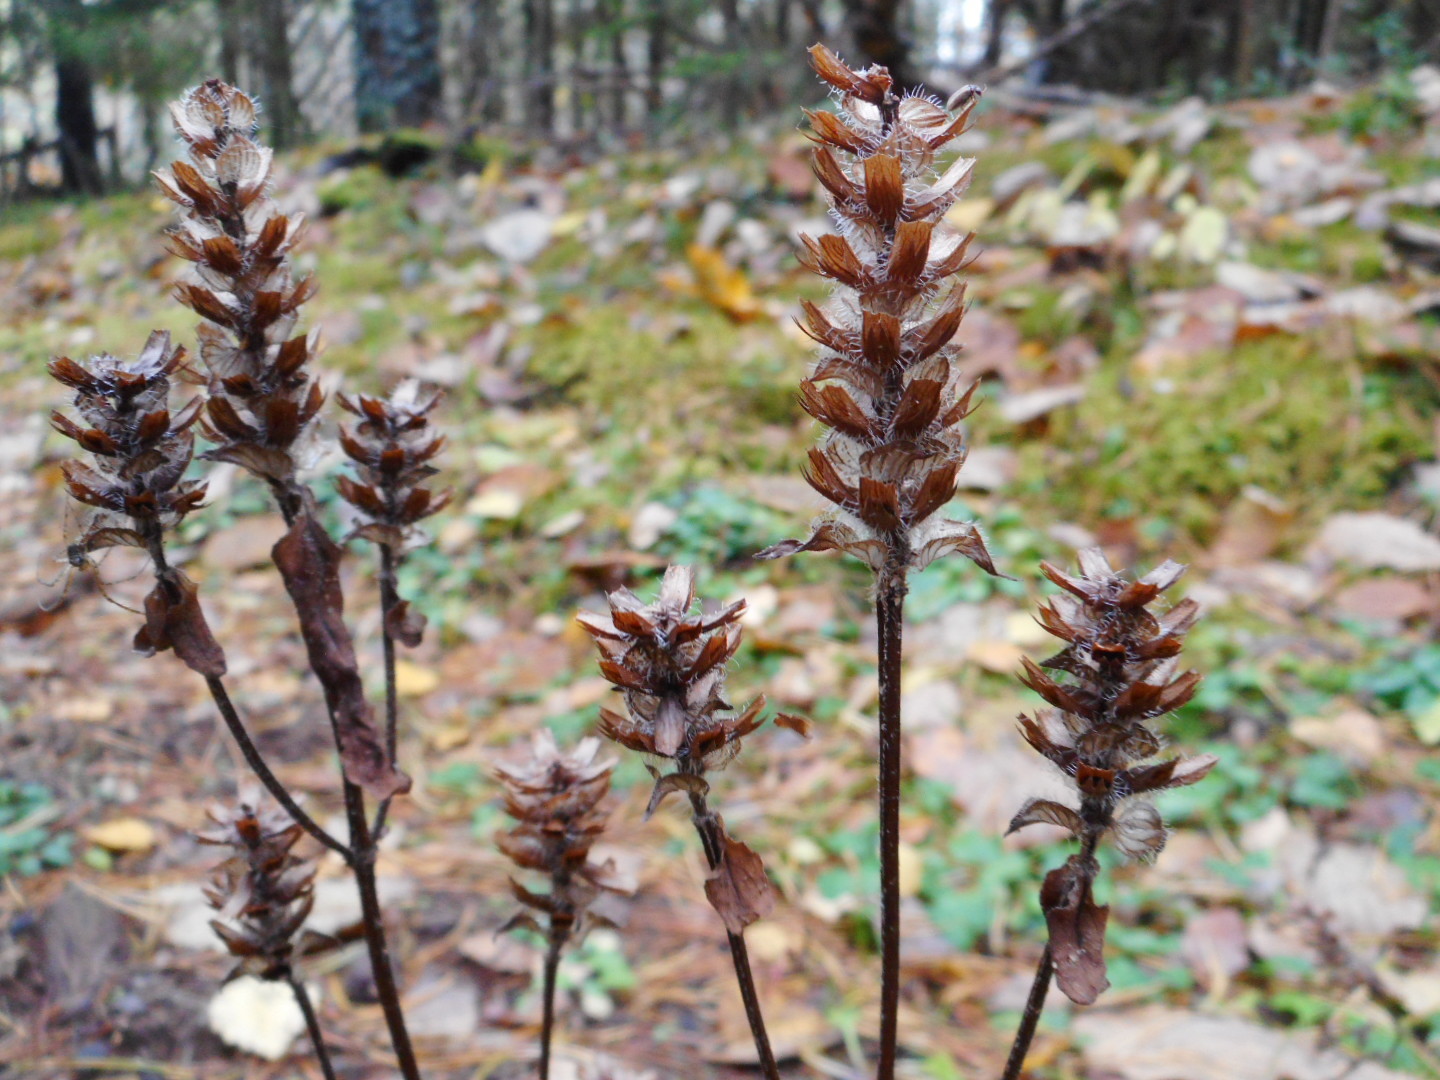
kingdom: Plantae
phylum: Tracheophyta
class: Magnoliopsida
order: Lamiales
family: Lamiaceae
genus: Prunella
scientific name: Prunella vulgaris
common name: Heal-all
